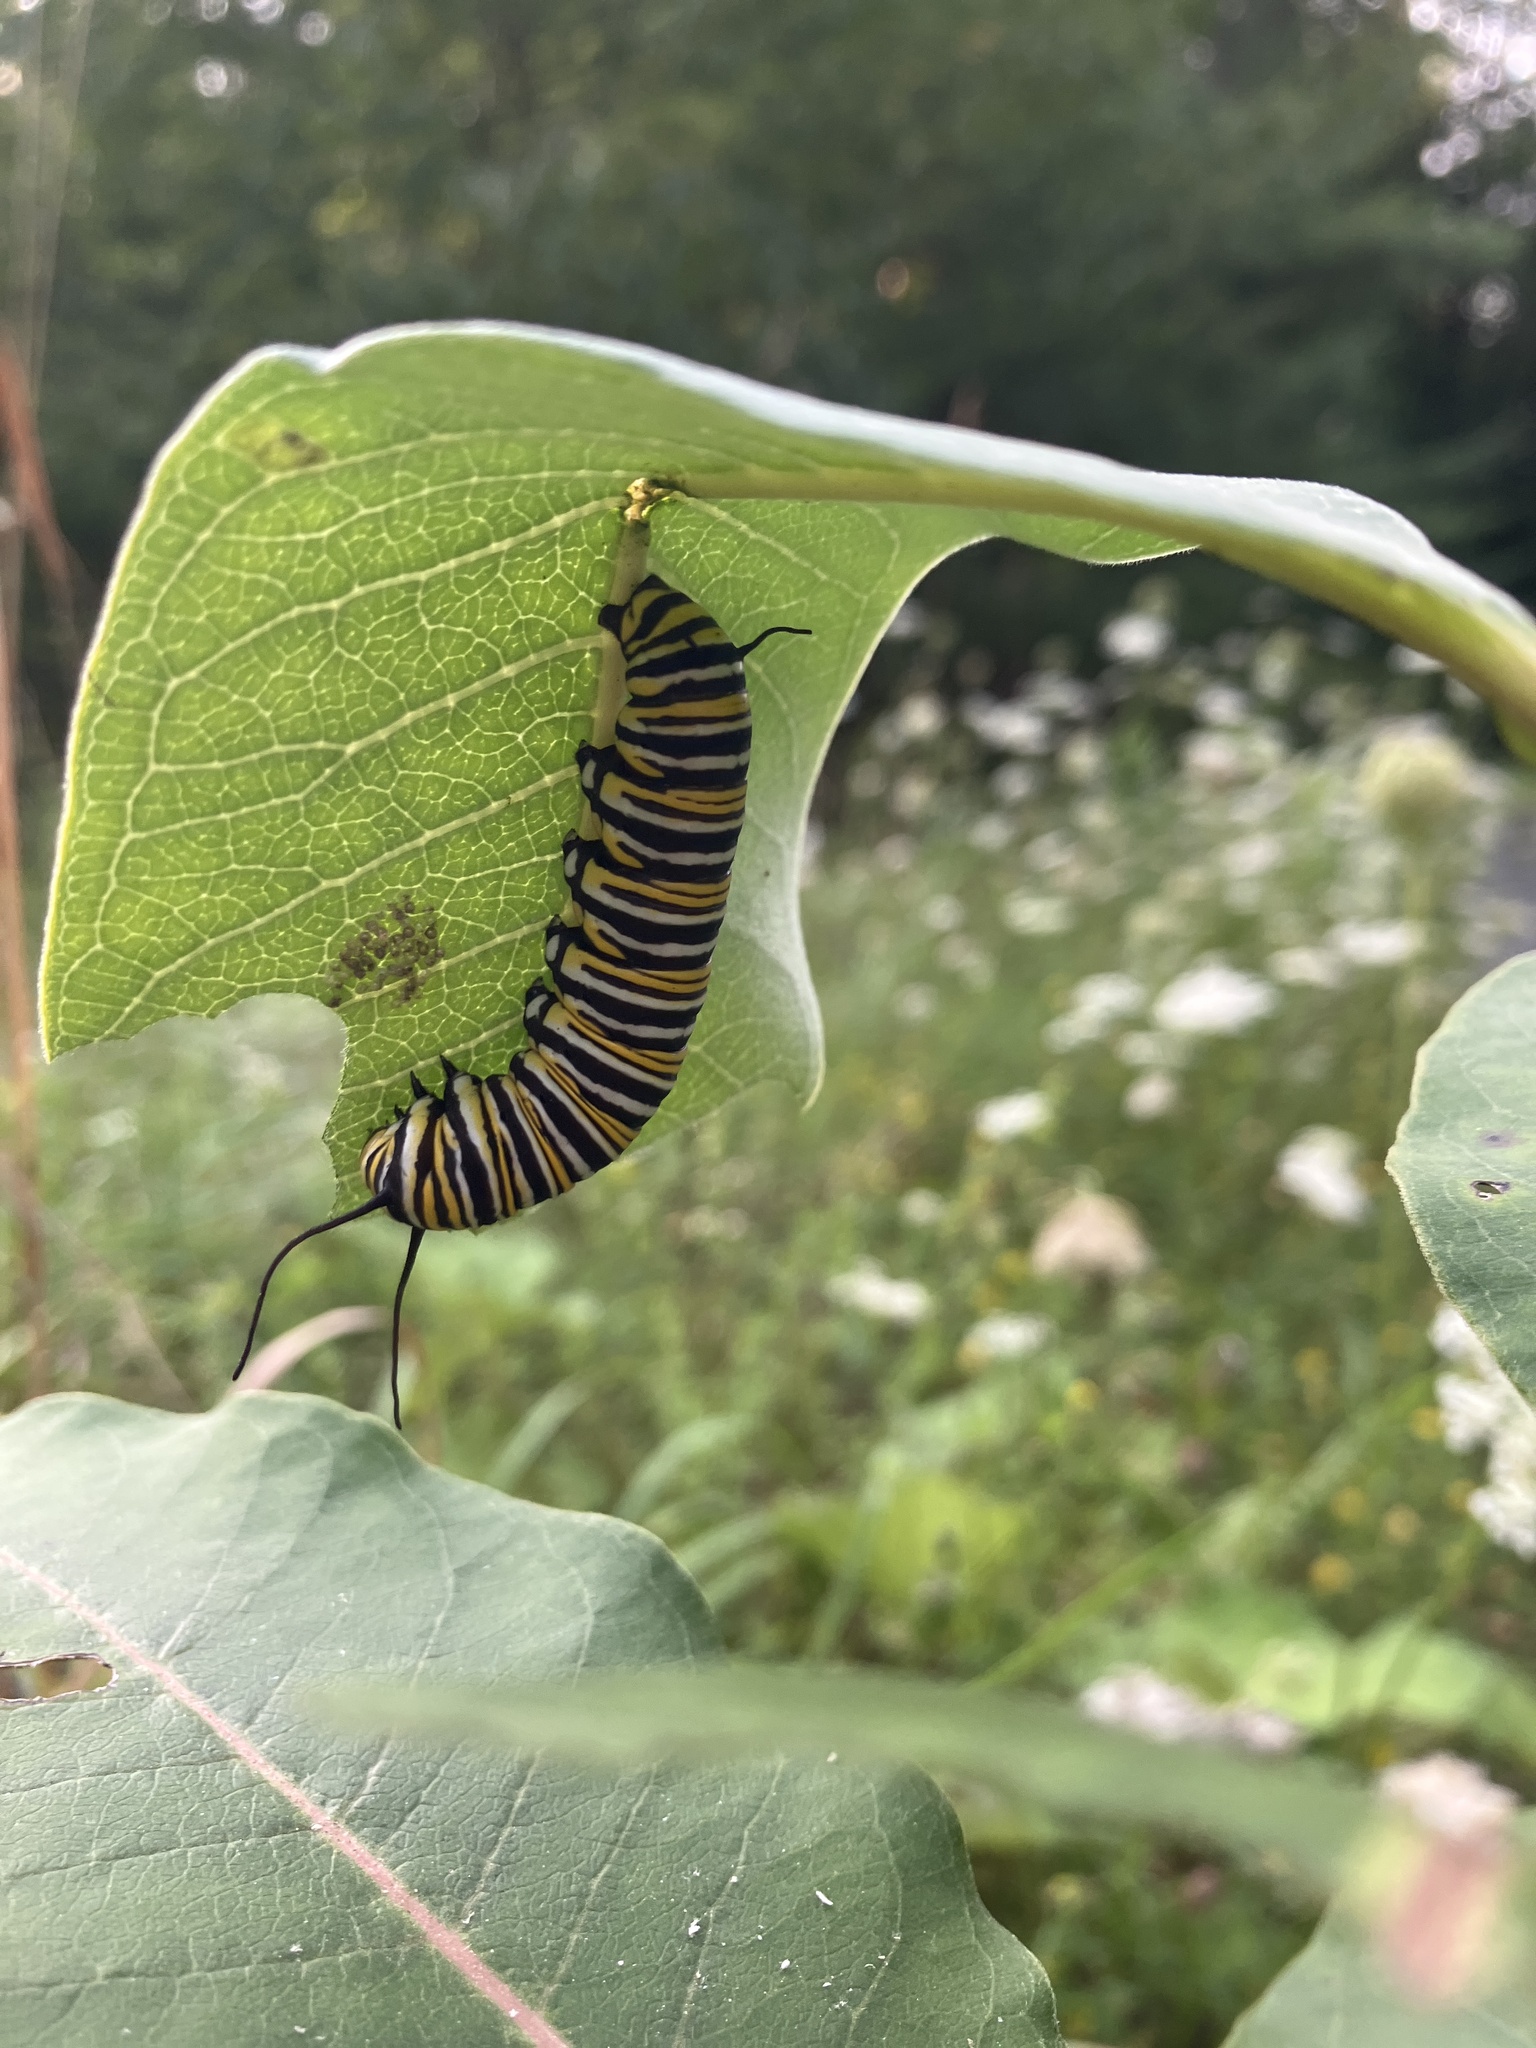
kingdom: Animalia
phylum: Arthropoda
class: Insecta
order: Lepidoptera
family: Nymphalidae
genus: Danaus
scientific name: Danaus plexippus
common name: Monarch
